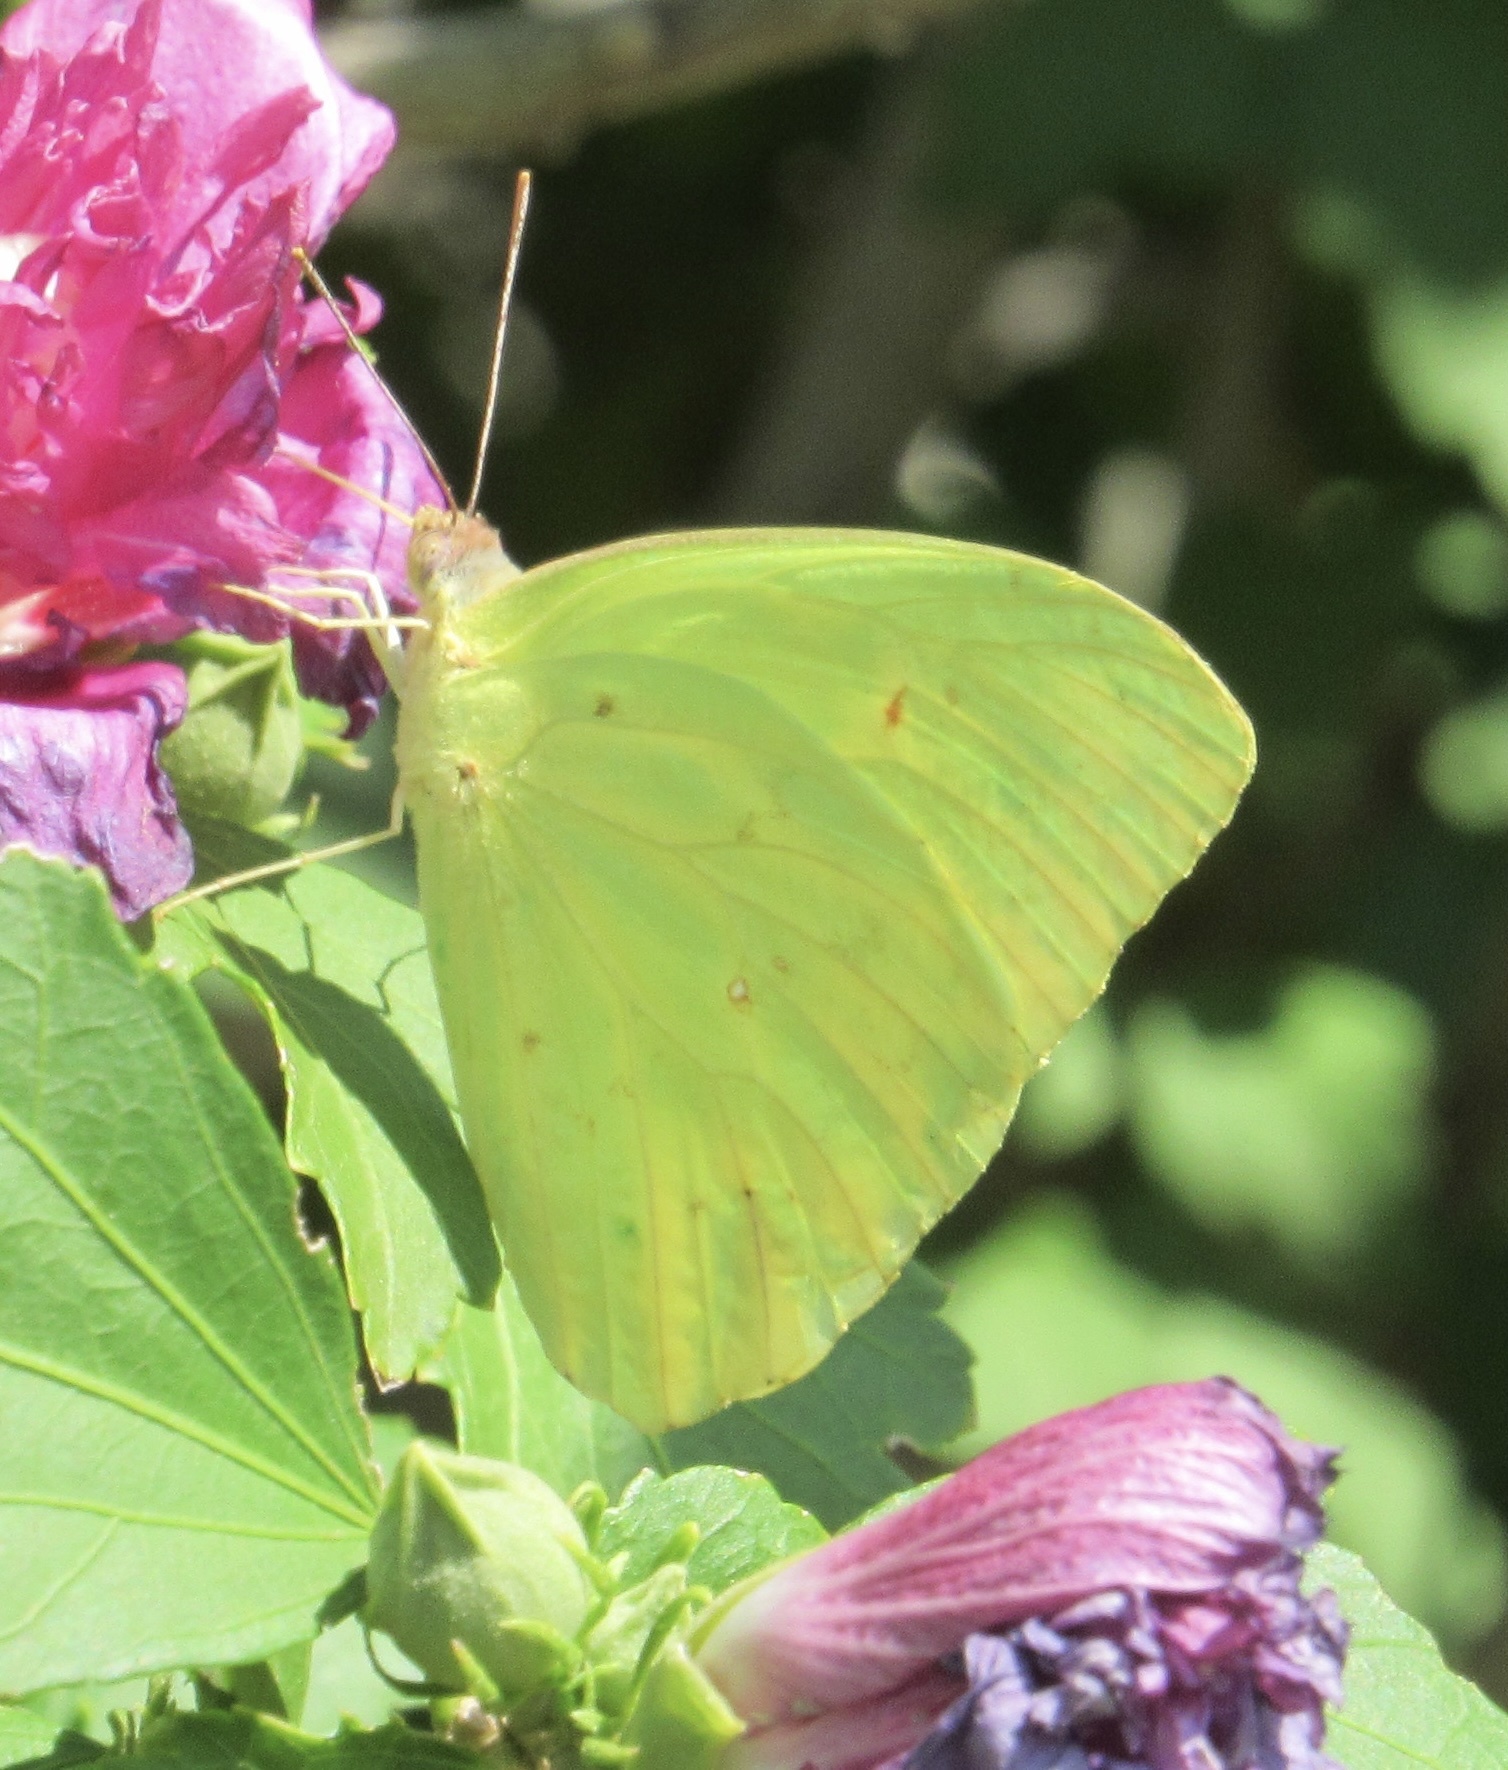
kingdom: Animalia
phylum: Arthropoda
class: Insecta
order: Lepidoptera
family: Pieridae
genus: Phoebis
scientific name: Phoebis sennae
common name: Cloudless sulphur
